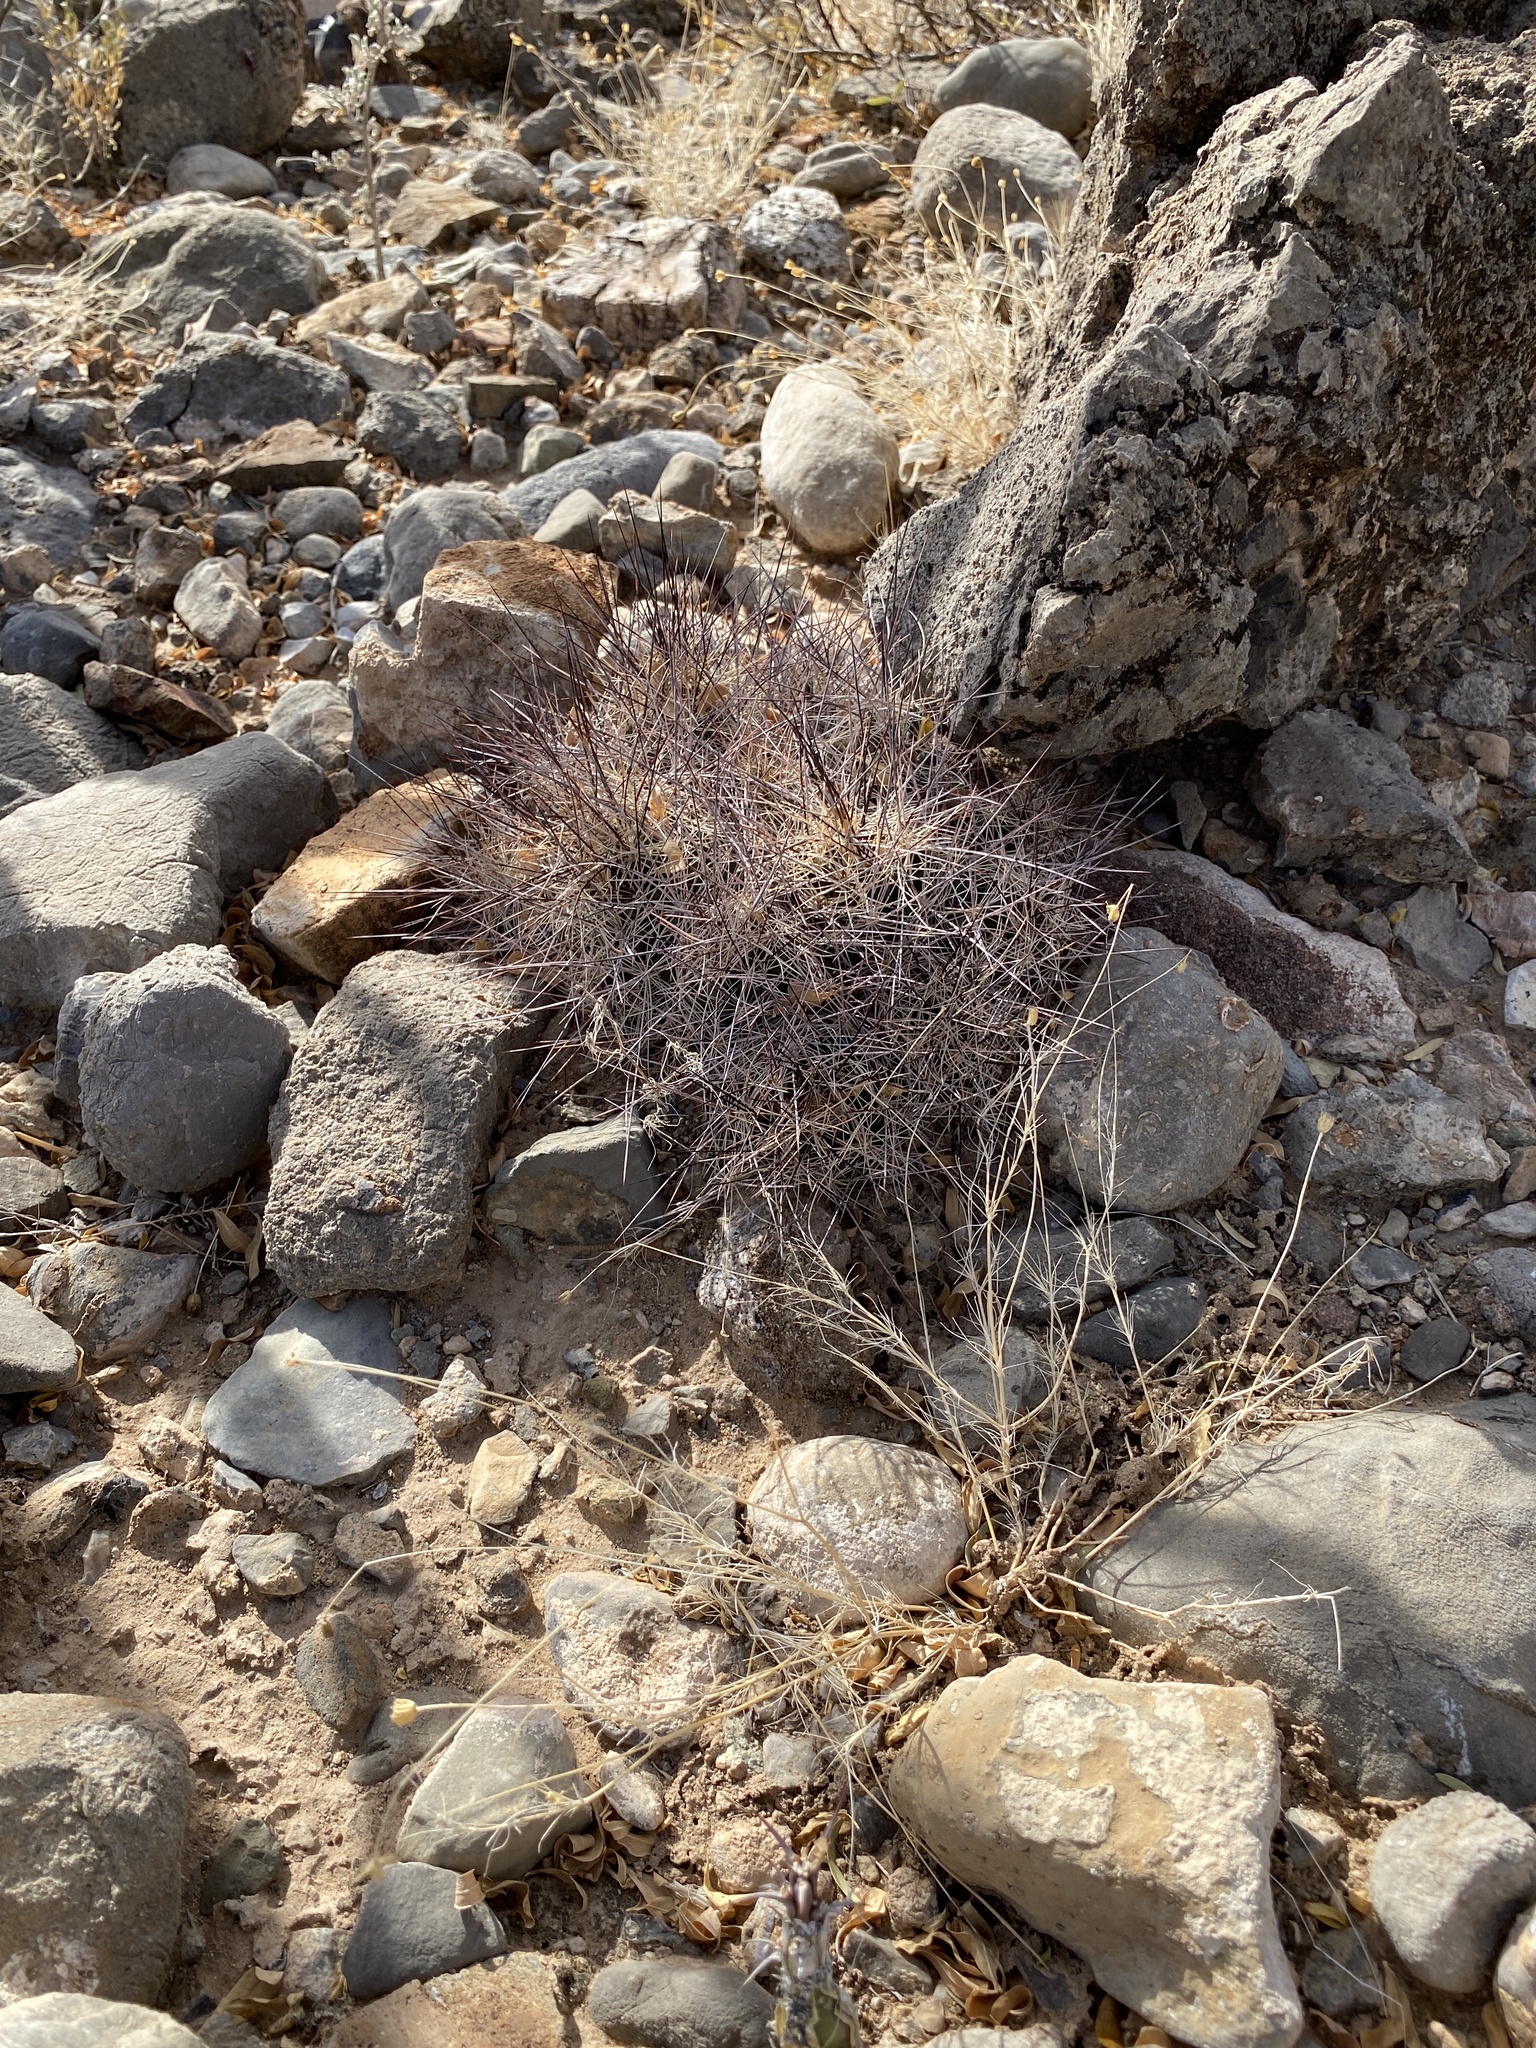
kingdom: Plantae
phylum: Tracheophyta
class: Magnoliopsida
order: Caryophyllales
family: Cactaceae
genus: Coryphantha
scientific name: Coryphantha macromeris
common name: Nipple beehive cactus
